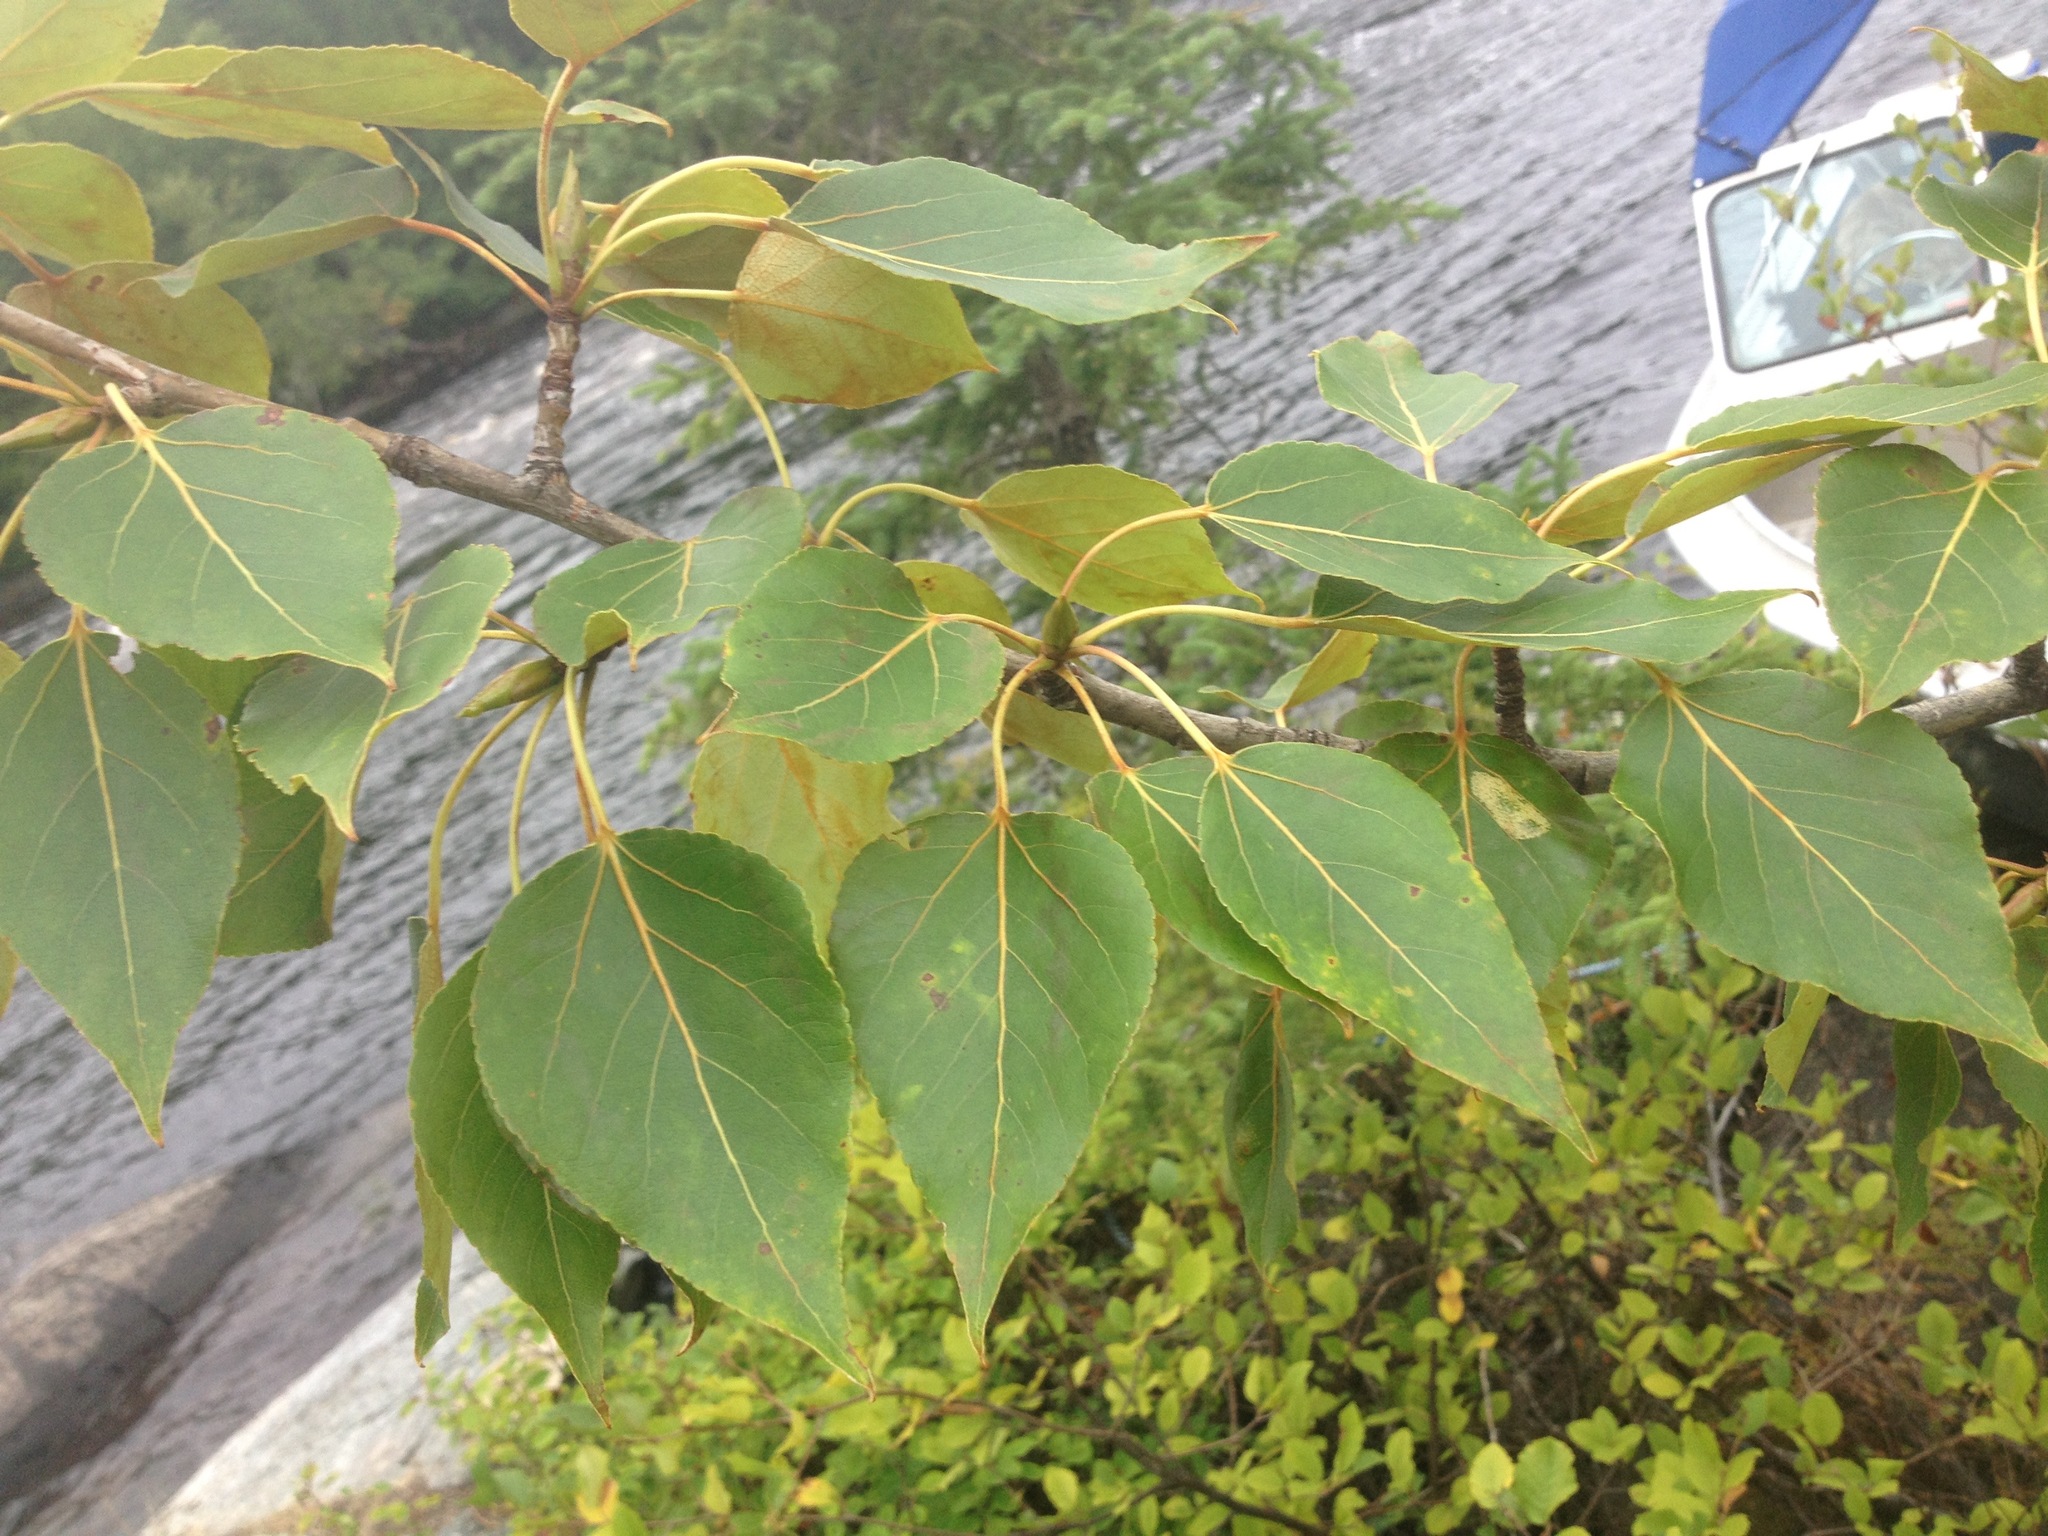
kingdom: Plantae
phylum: Tracheophyta
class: Magnoliopsida
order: Malpighiales
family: Salicaceae
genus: Populus
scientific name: Populus balsamifera
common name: Balsam poplar
